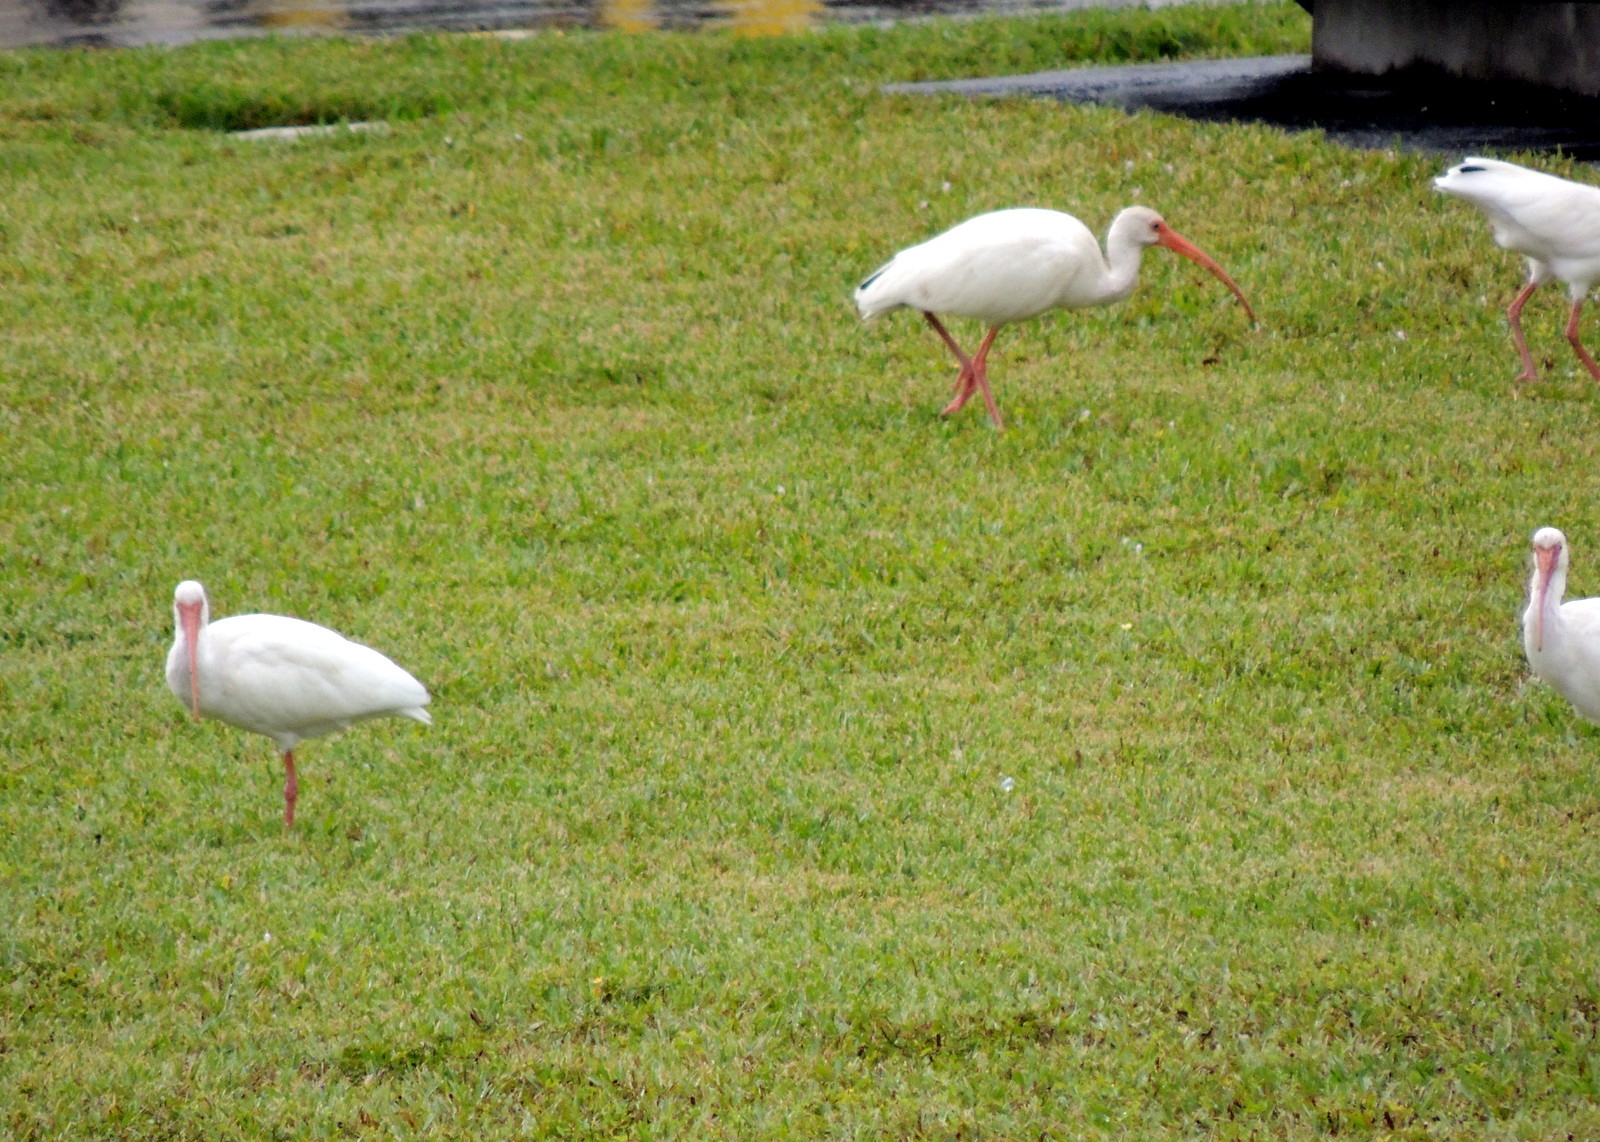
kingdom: Animalia
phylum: Chordata
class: Aves
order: Pelecaniformes
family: Threskiornithidae
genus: Eudocimus
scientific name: Eudocimus albus
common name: White ibis
